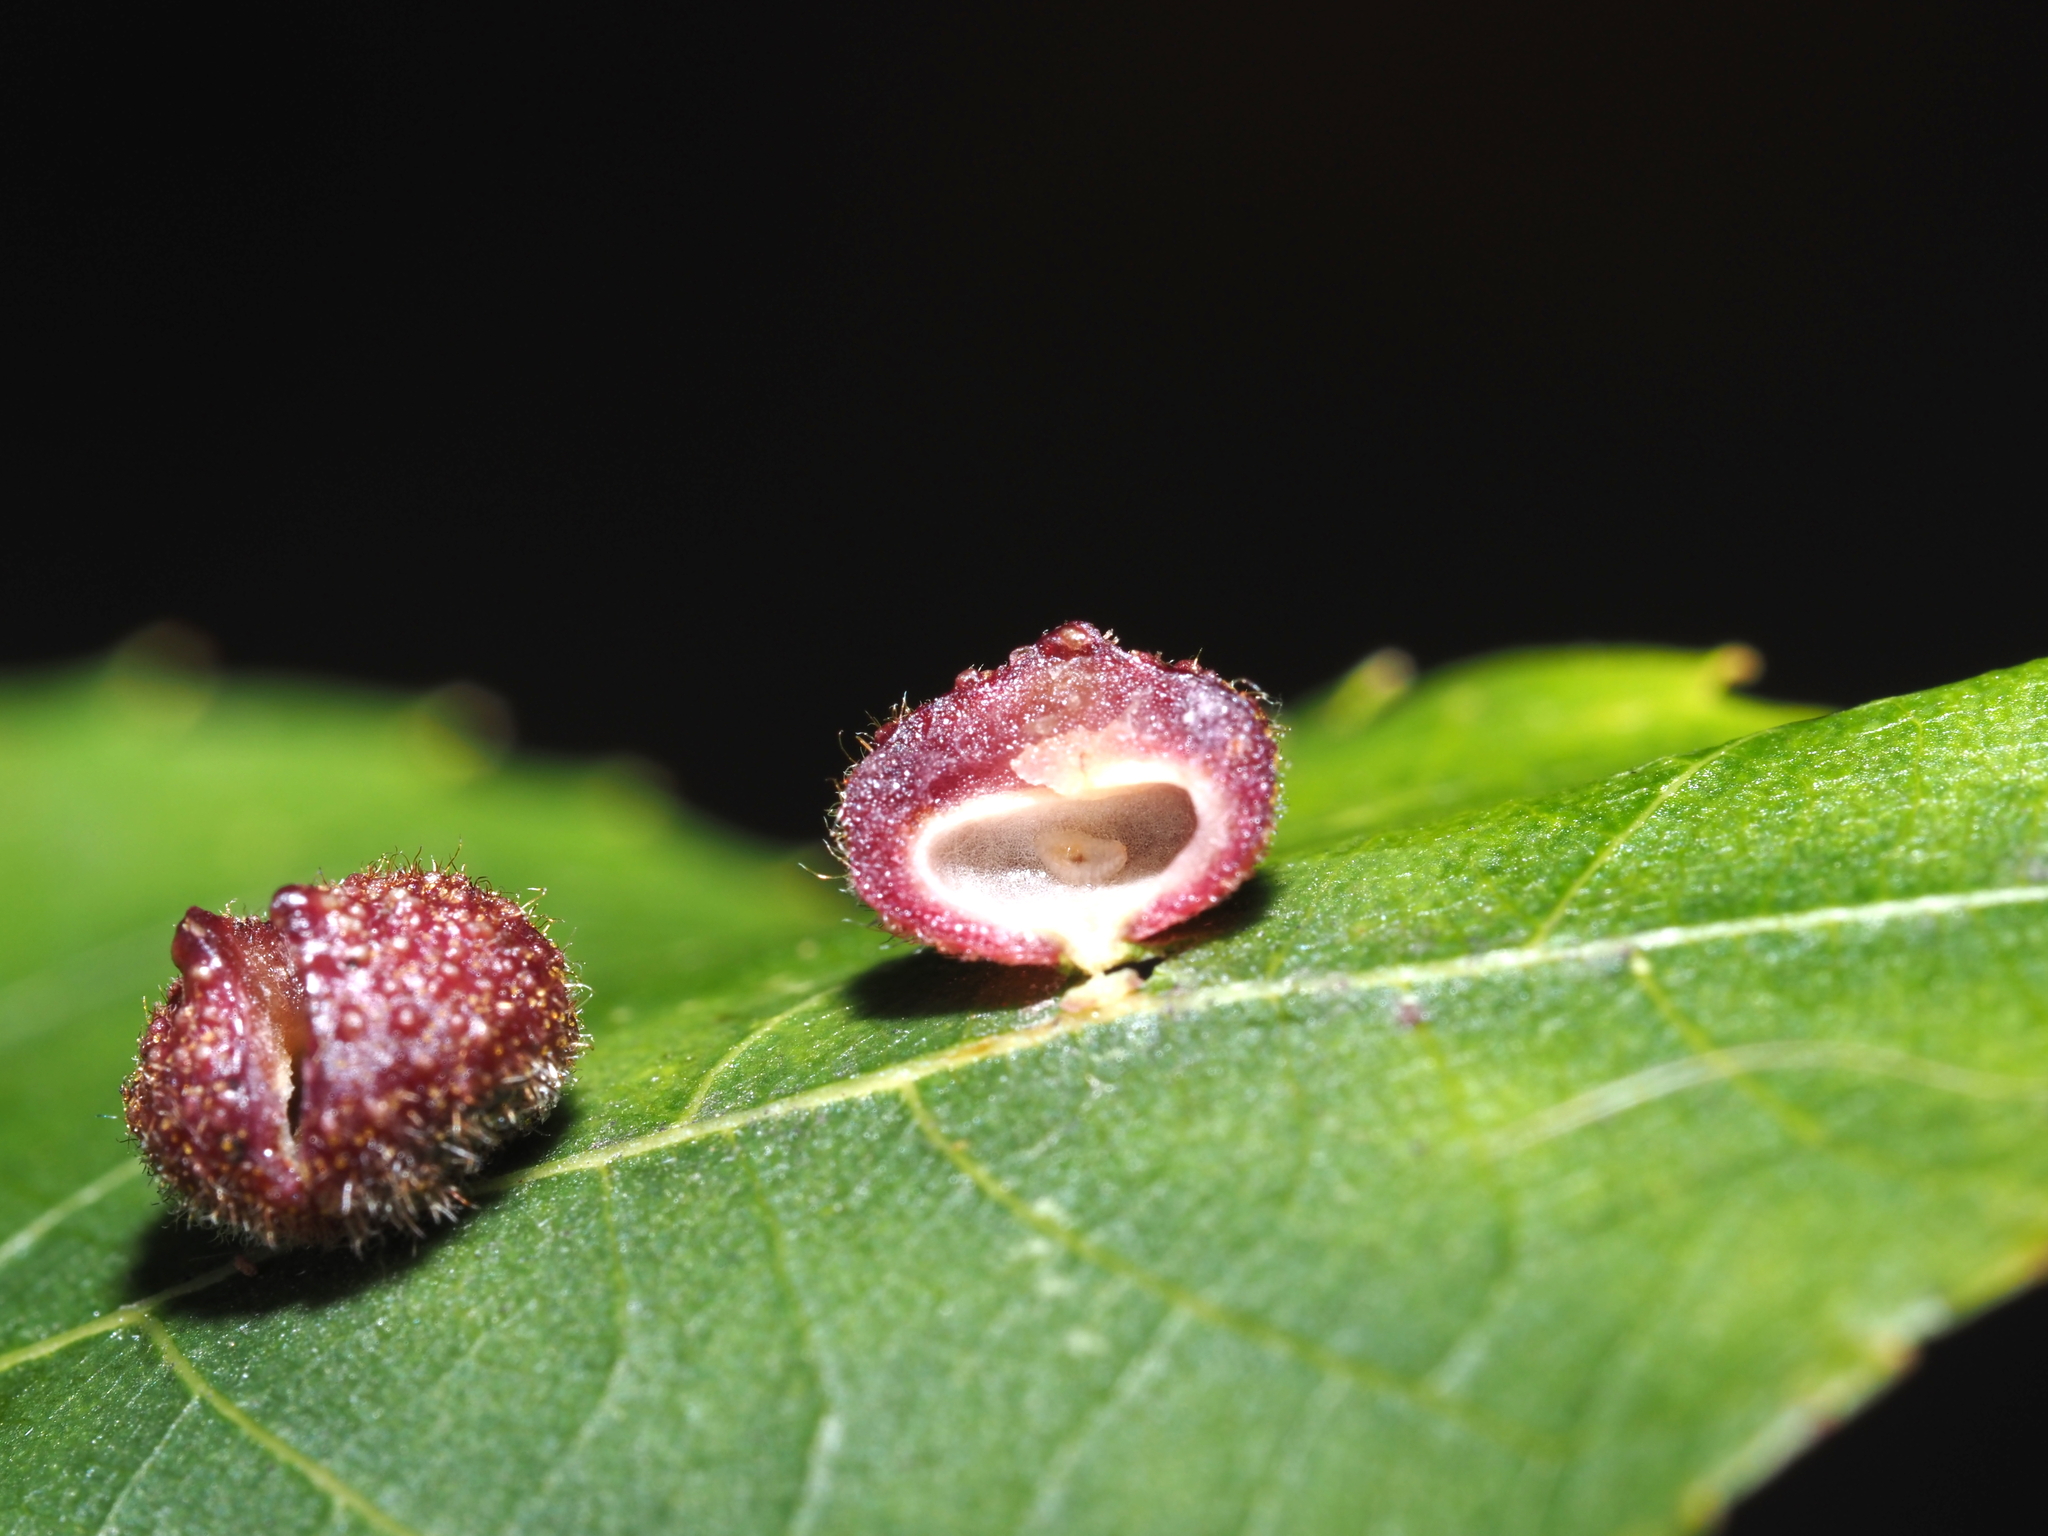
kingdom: Animalia
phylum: Arthropoda
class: Insecta
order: Diptera
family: Cecidomyiidae
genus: Caryomyia
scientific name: Caryomyia turbanella
